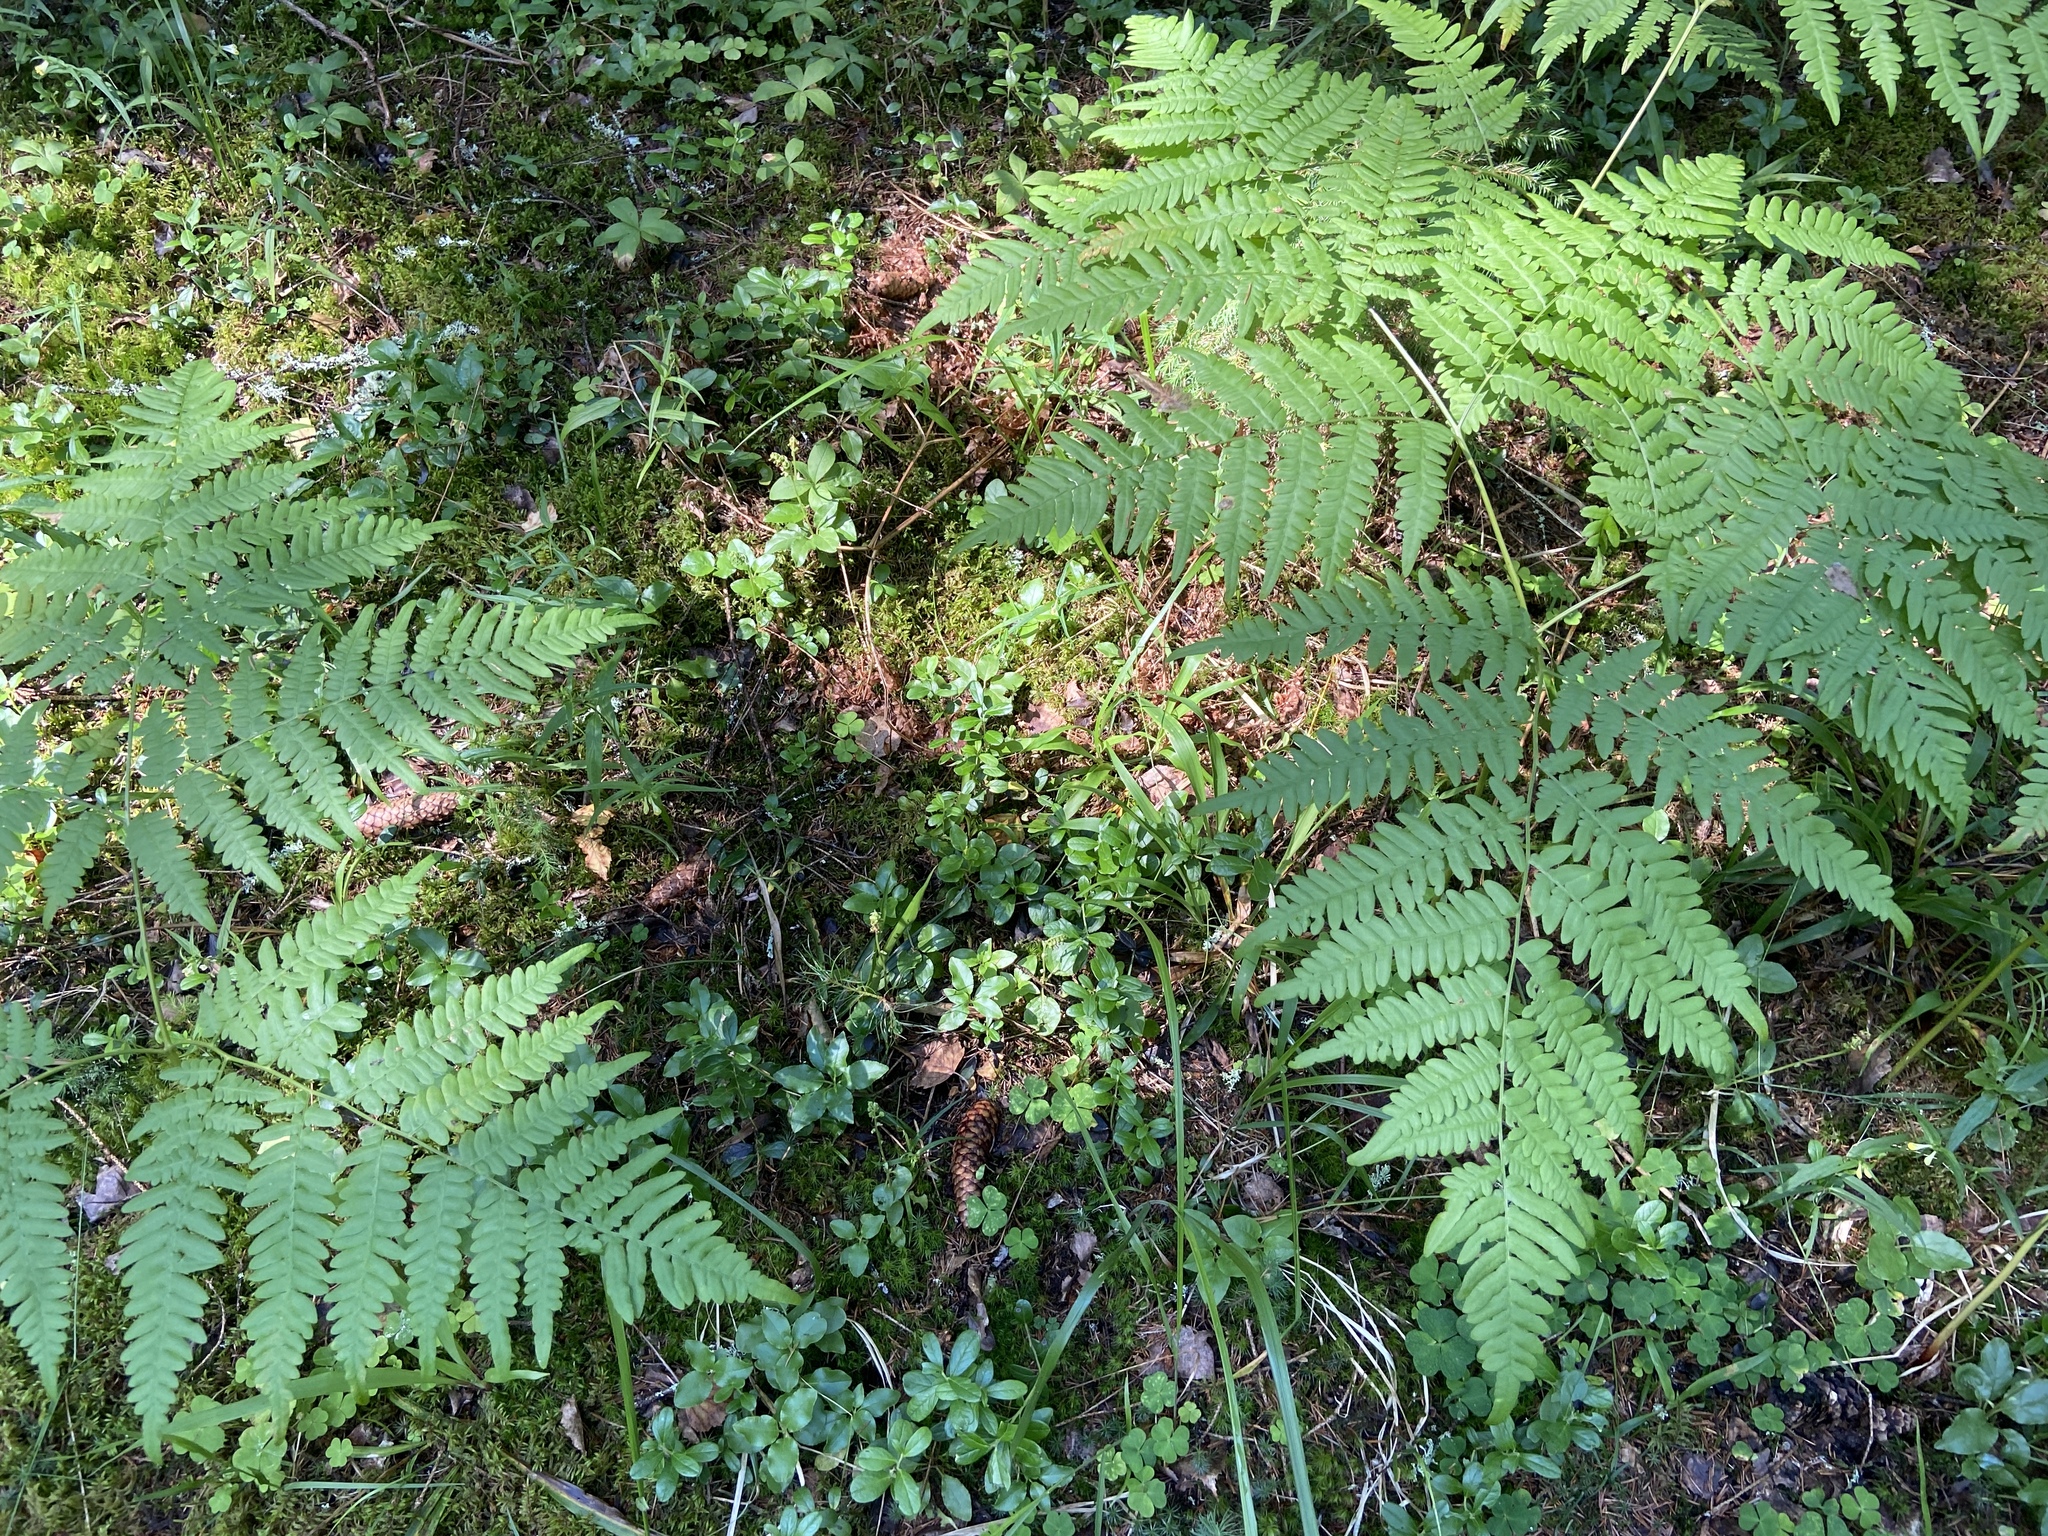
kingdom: Plantae
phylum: Tracheophyta
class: Polypodiopsida
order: Polypodiales
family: Dennstaedtiaceae
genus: Pteridium
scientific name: Pteridium aquilinum
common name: Bracken
